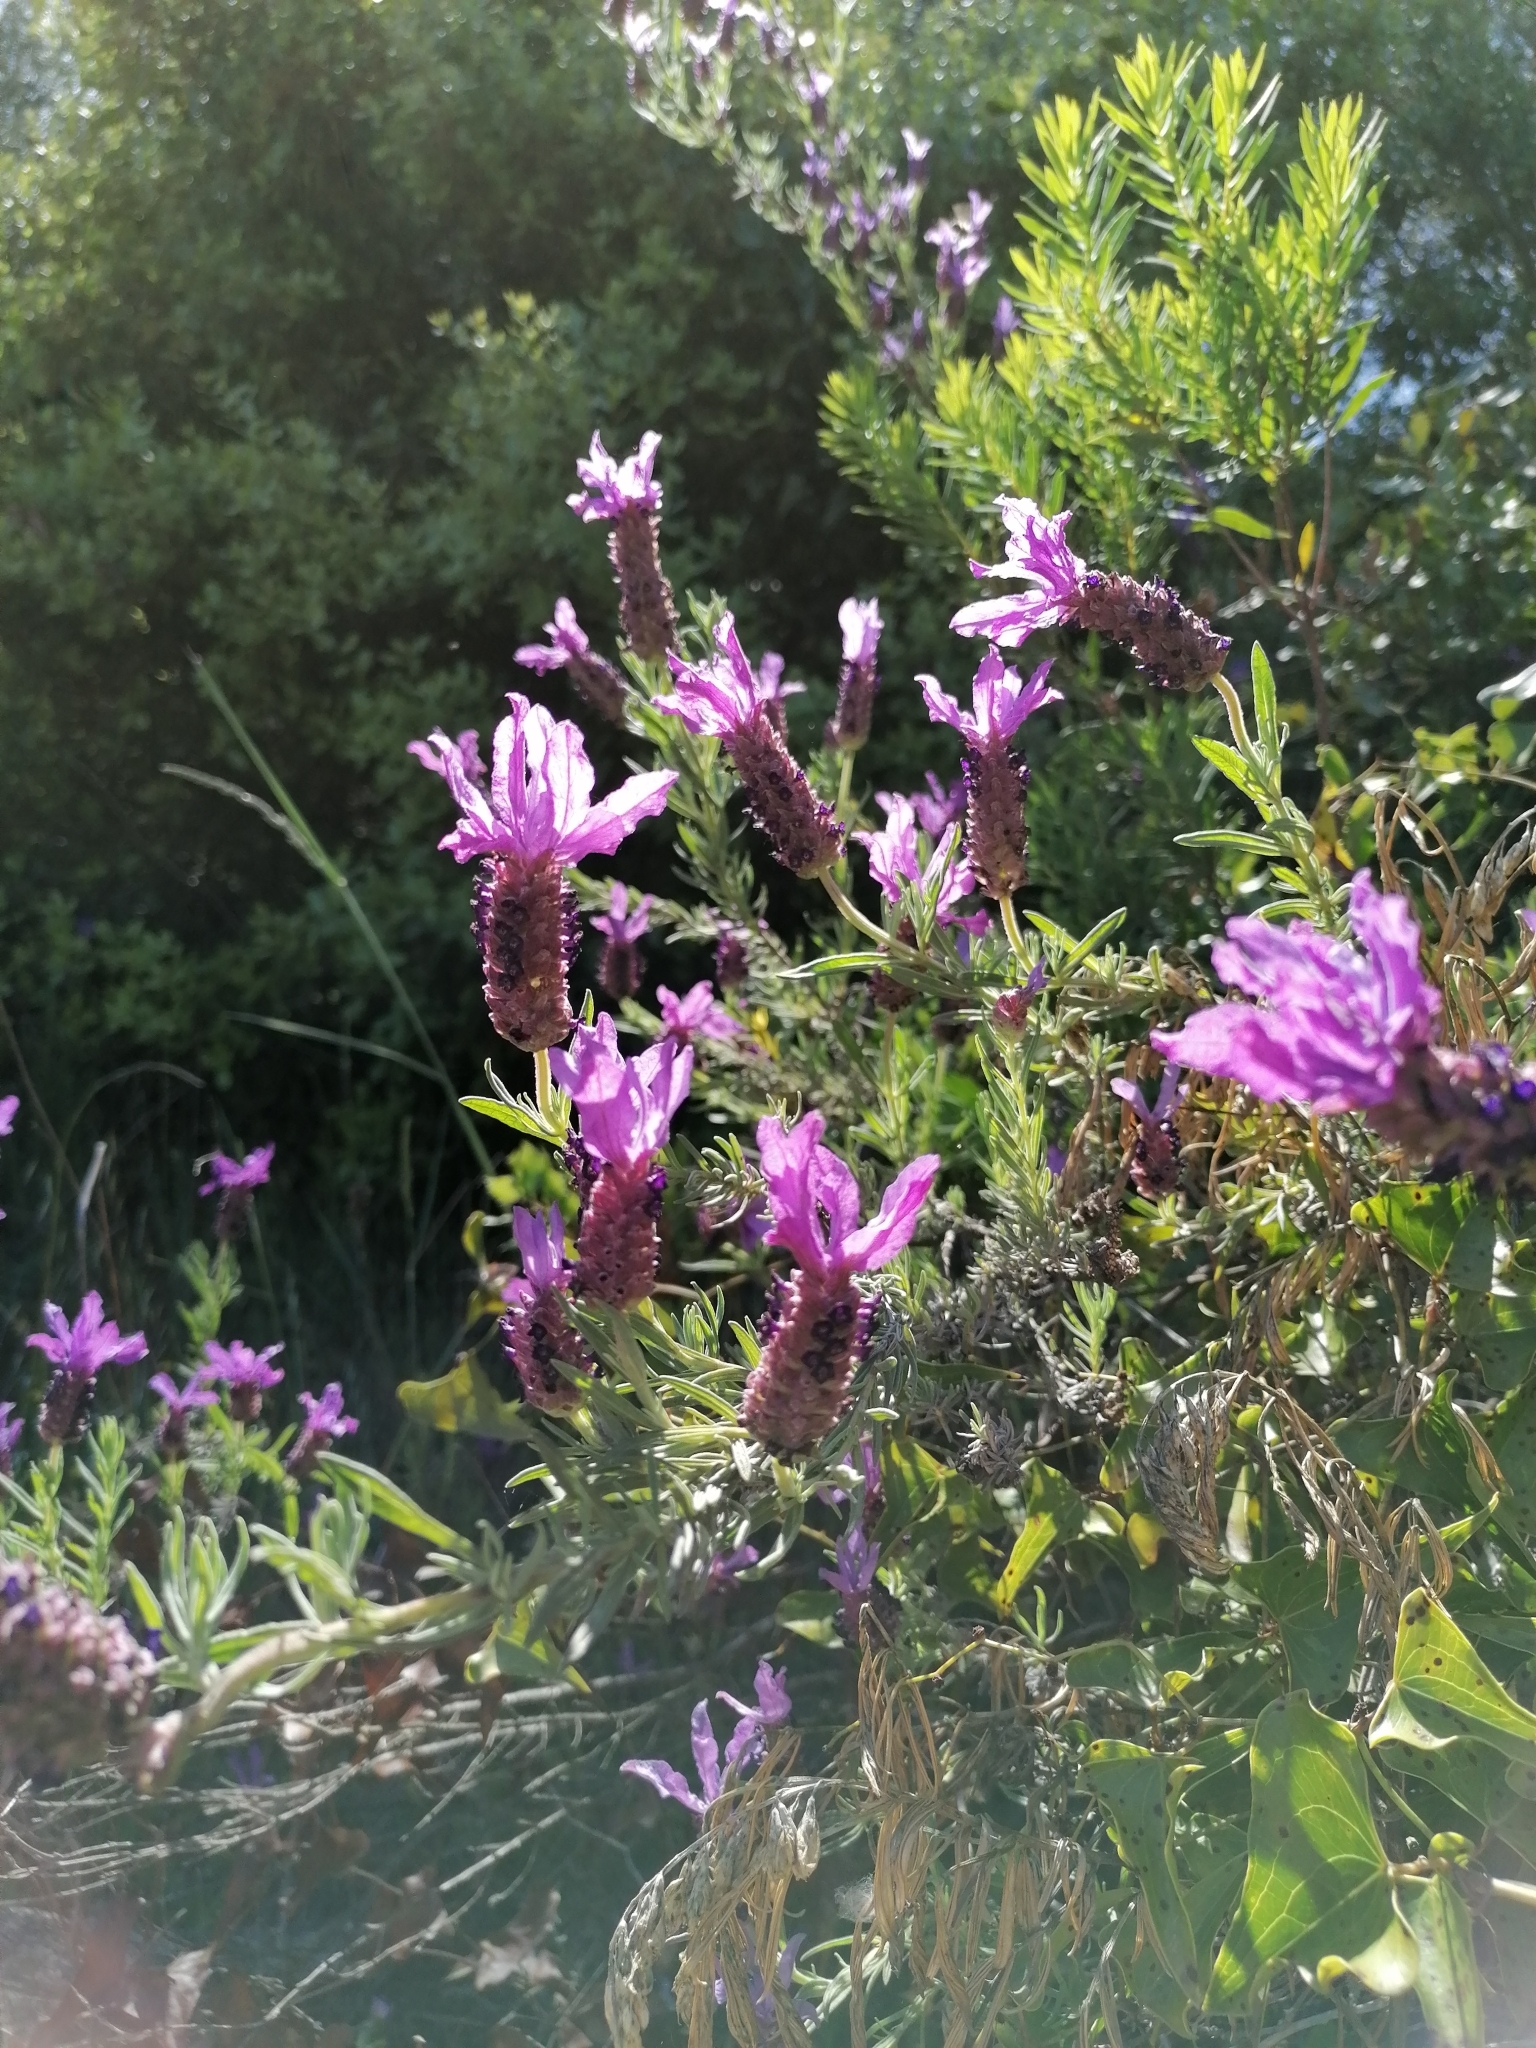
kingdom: Plantae
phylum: Tracheophyta
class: Magnoliopsida
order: Lamiales
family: Lamiaceae
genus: Lavandula
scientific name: Lavandula stoechas
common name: French lavender
